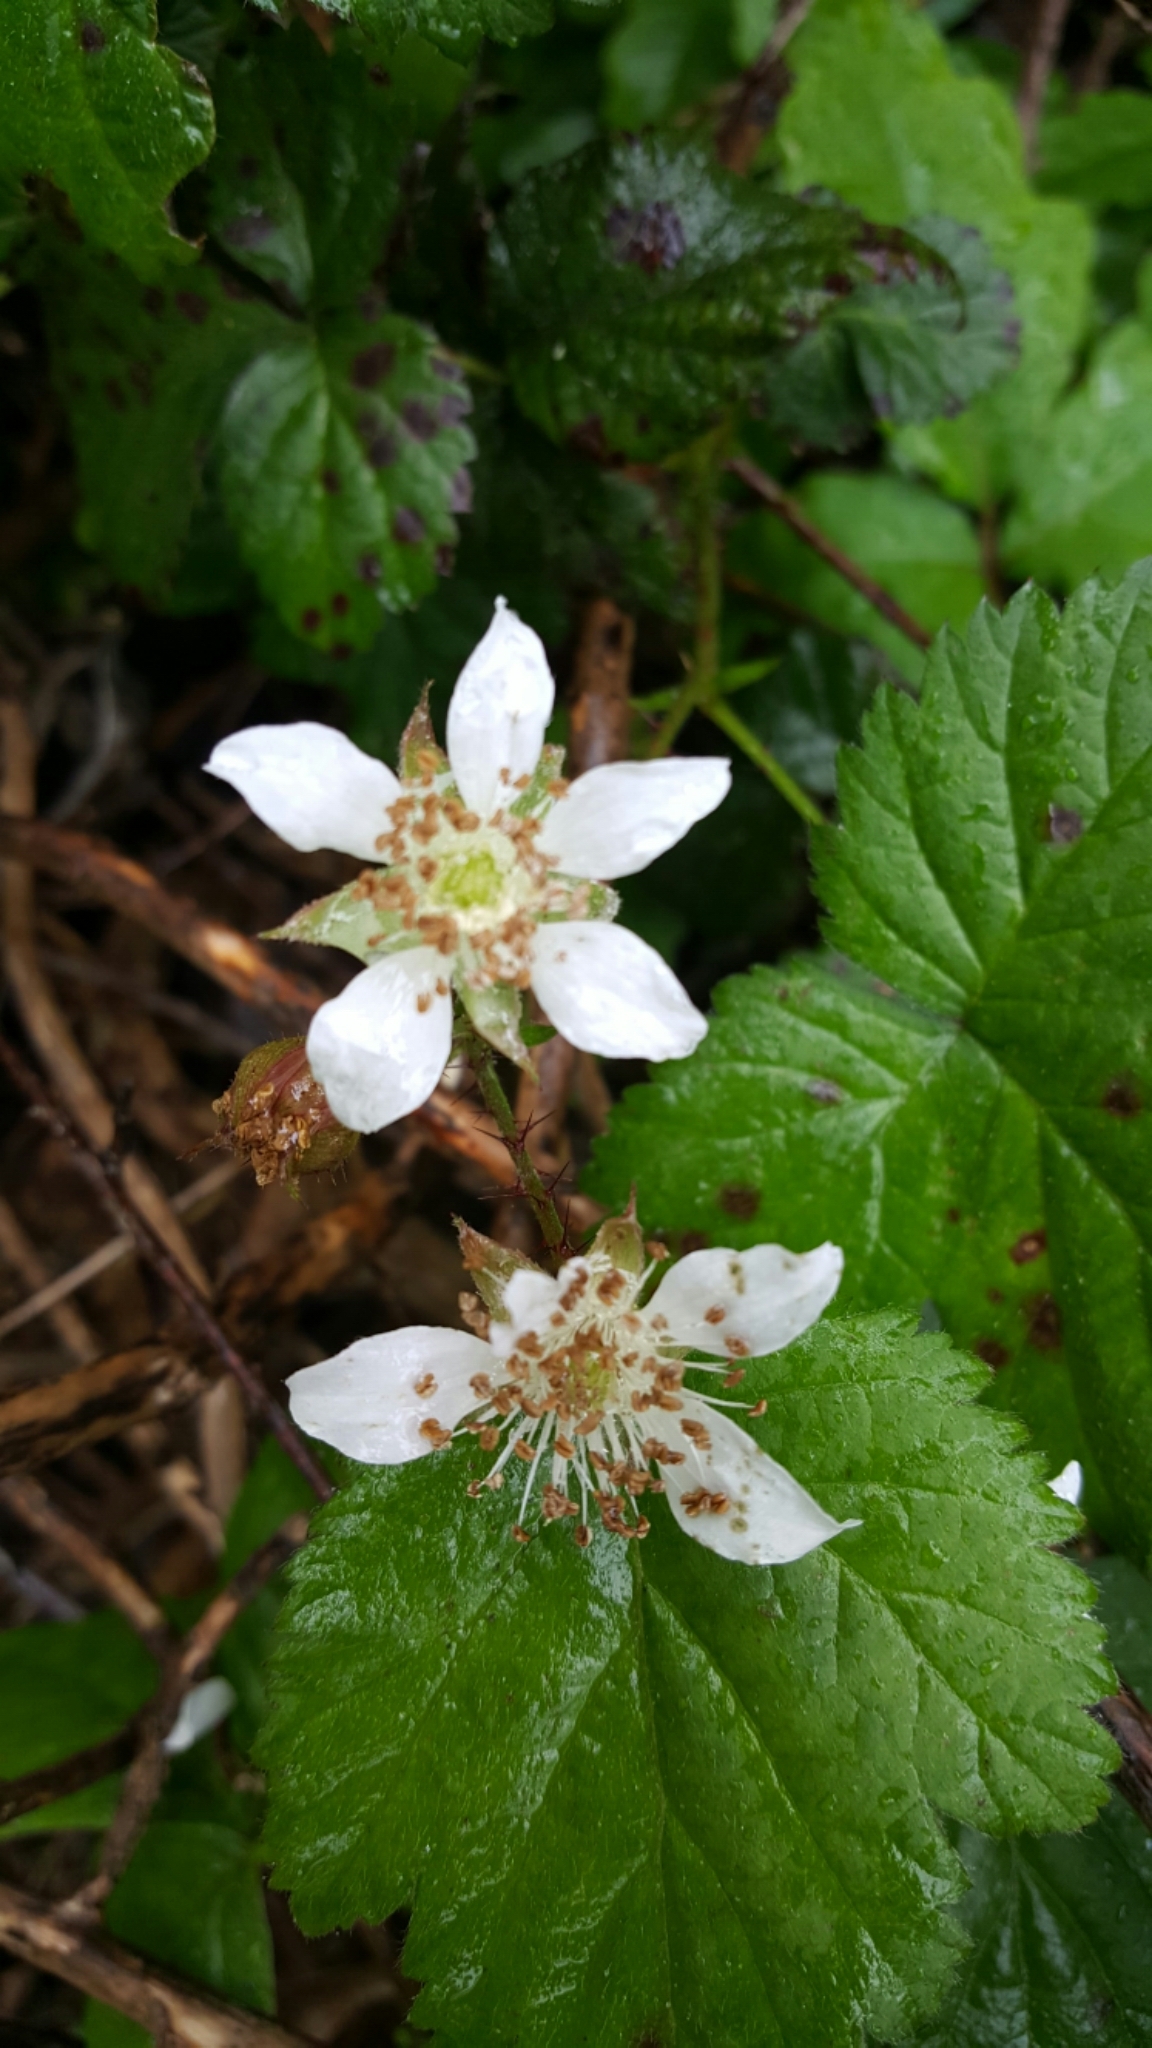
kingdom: Plantae
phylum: Tracheophyta
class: Magnoliopsida
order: Rosales
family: Rosaceae
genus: Rubus
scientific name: Rubus ursinus
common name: Pacific blackberry
